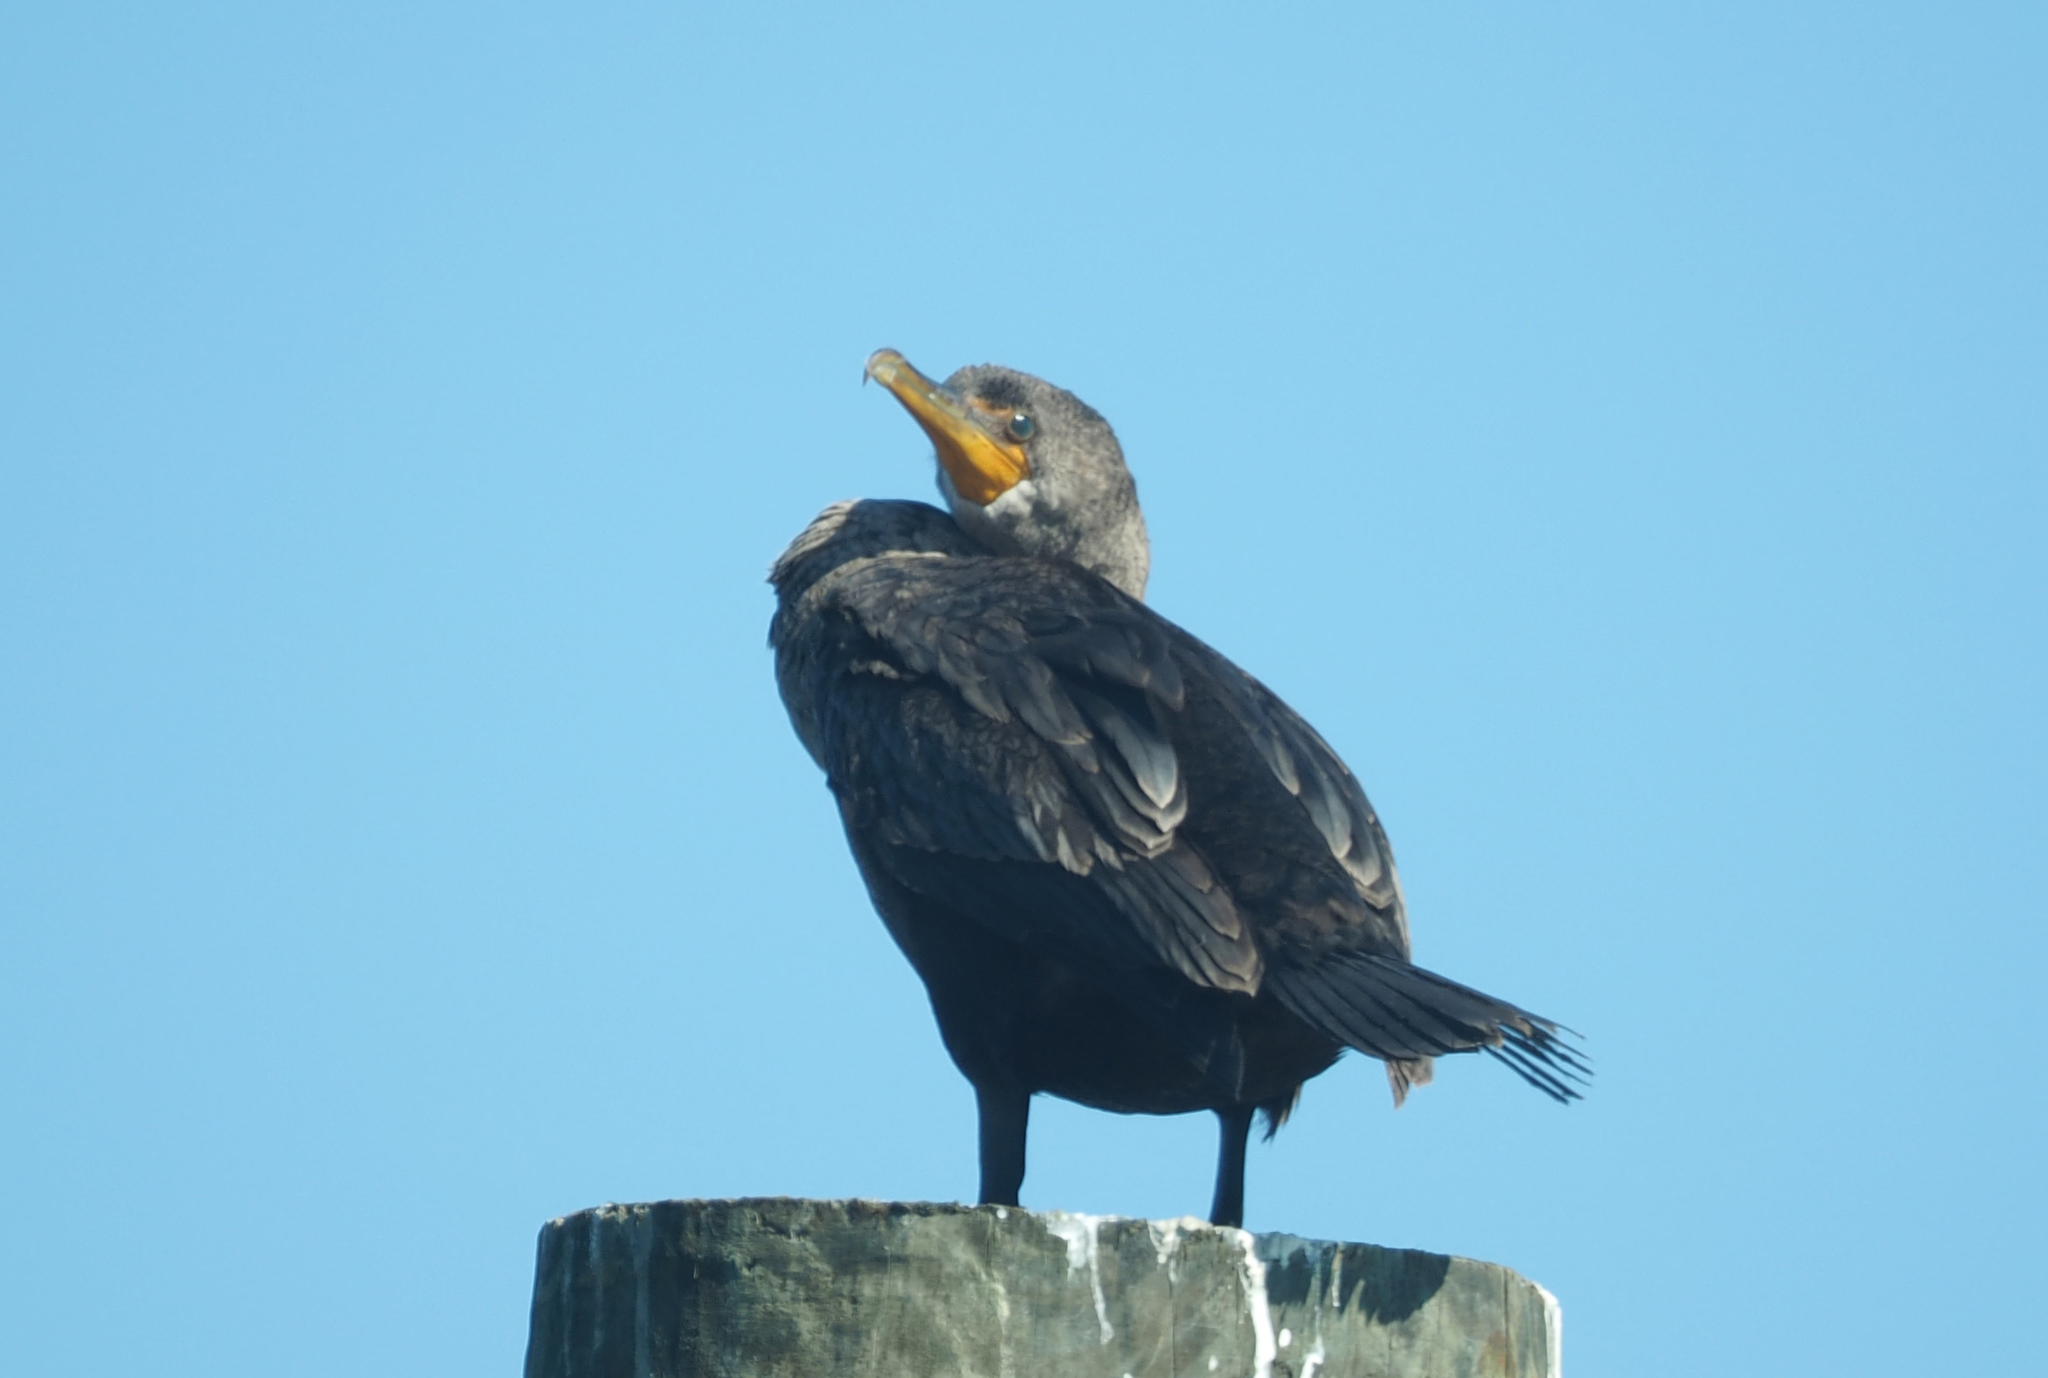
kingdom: Animalia
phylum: Chordata
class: Aves
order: Suliformes
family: Phalacrocoracidae
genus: Phalacrocorax
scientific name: Phalacrocorax auritus
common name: Double-crested cormorant
